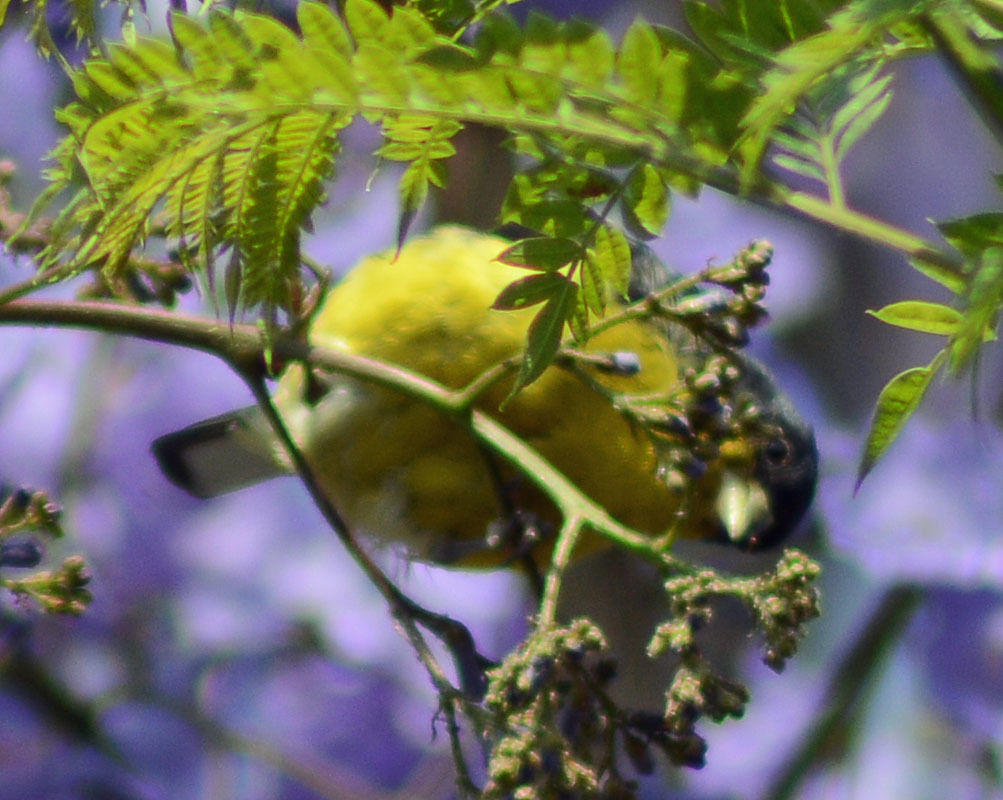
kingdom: Animalia
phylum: Chordata
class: Aves
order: Passeriformes
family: Fringillidae
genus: Spinus
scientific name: Spinus psaltria
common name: Lesser goldfinch
